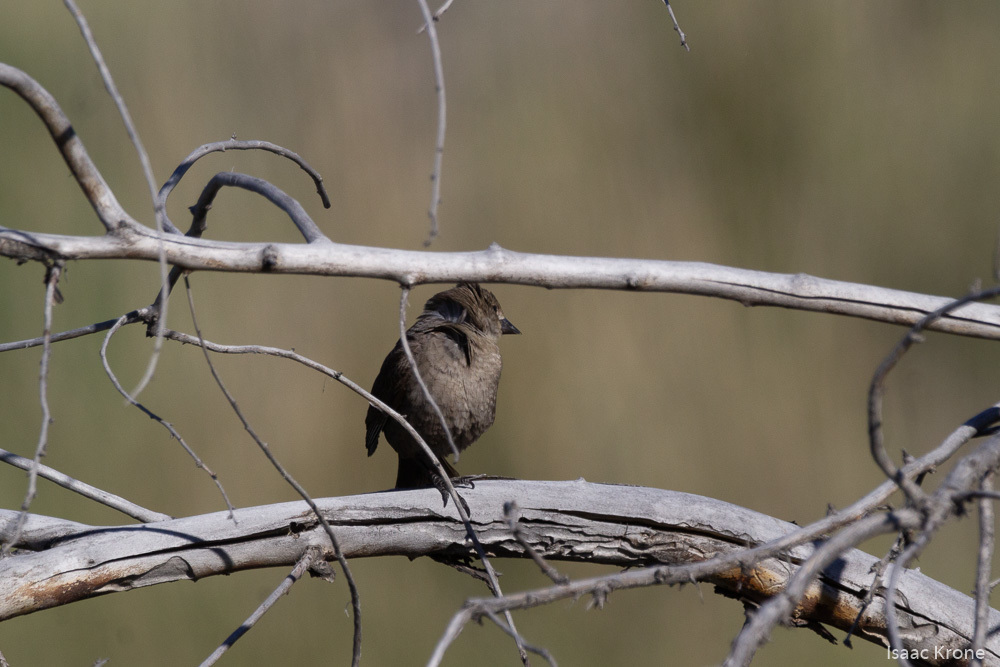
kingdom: Animalia
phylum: Chordata
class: Aves
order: Passeriformes
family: Icteridae
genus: Molothrus
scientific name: Molothrus ater
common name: Brown-headed cowbird
